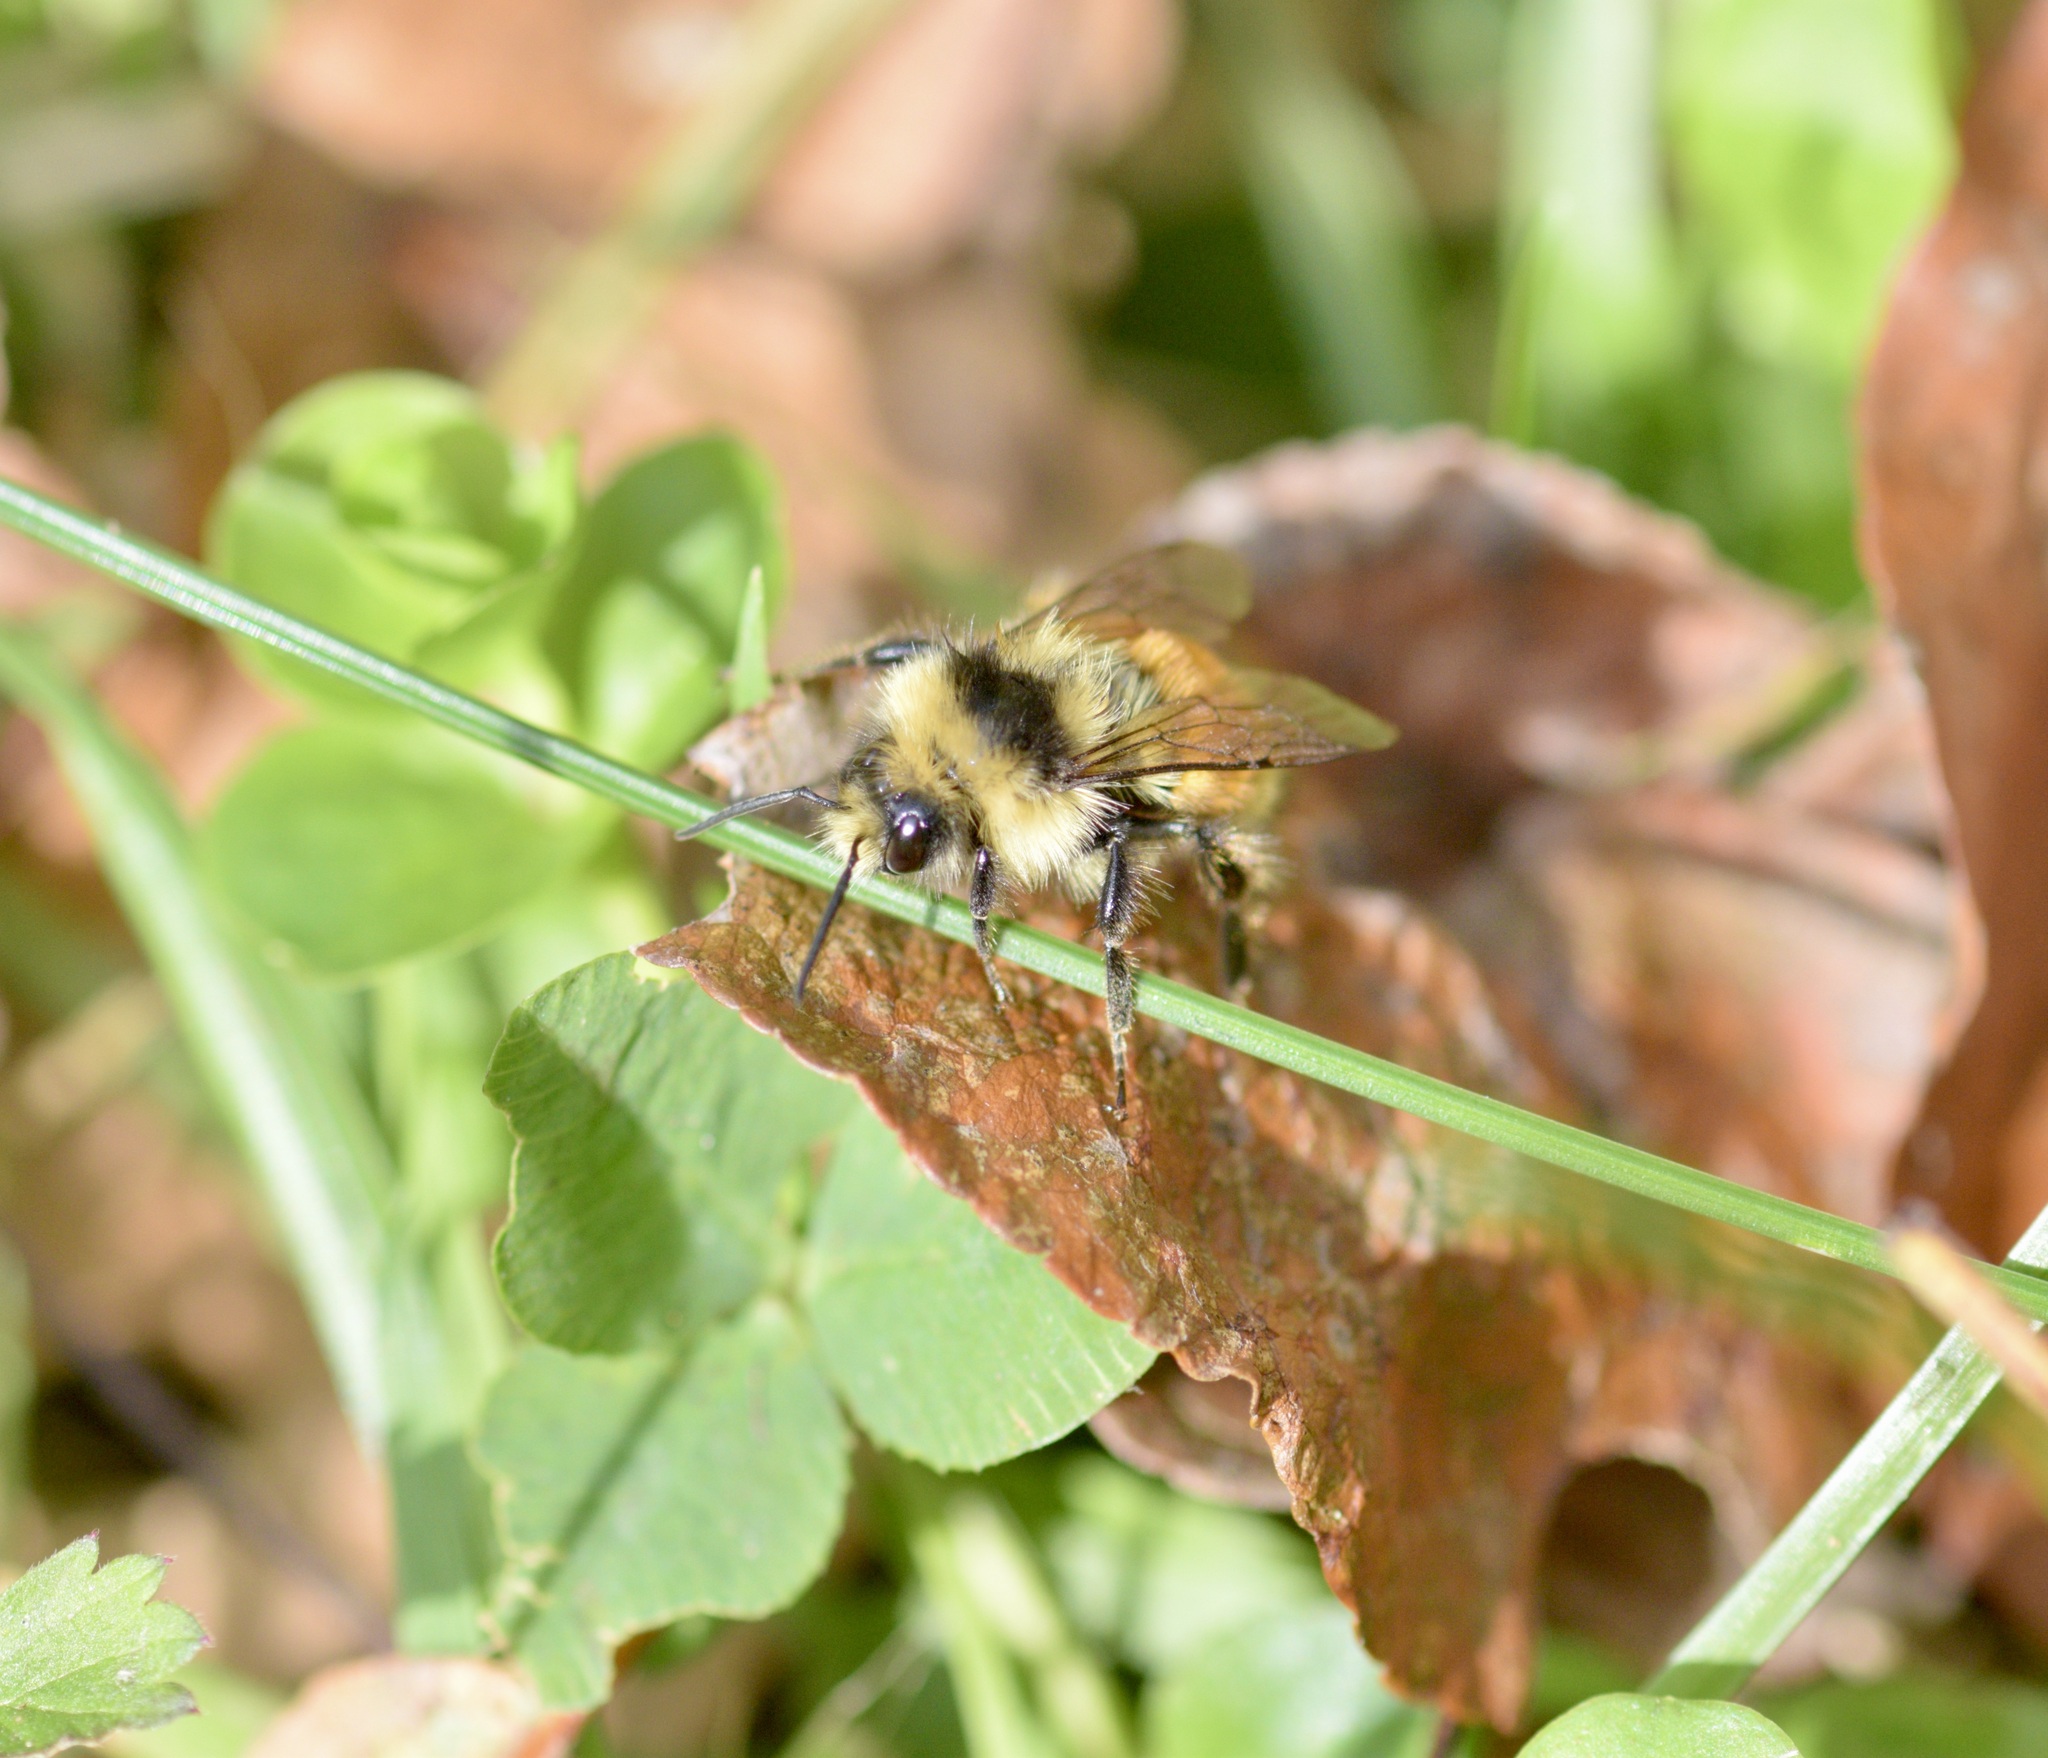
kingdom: Animalia
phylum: Arthropoda
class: Insecta
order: Hymenoptera
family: Apidae
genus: Bombus
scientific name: Bombus ternarius
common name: Tri-colored bumble bee
